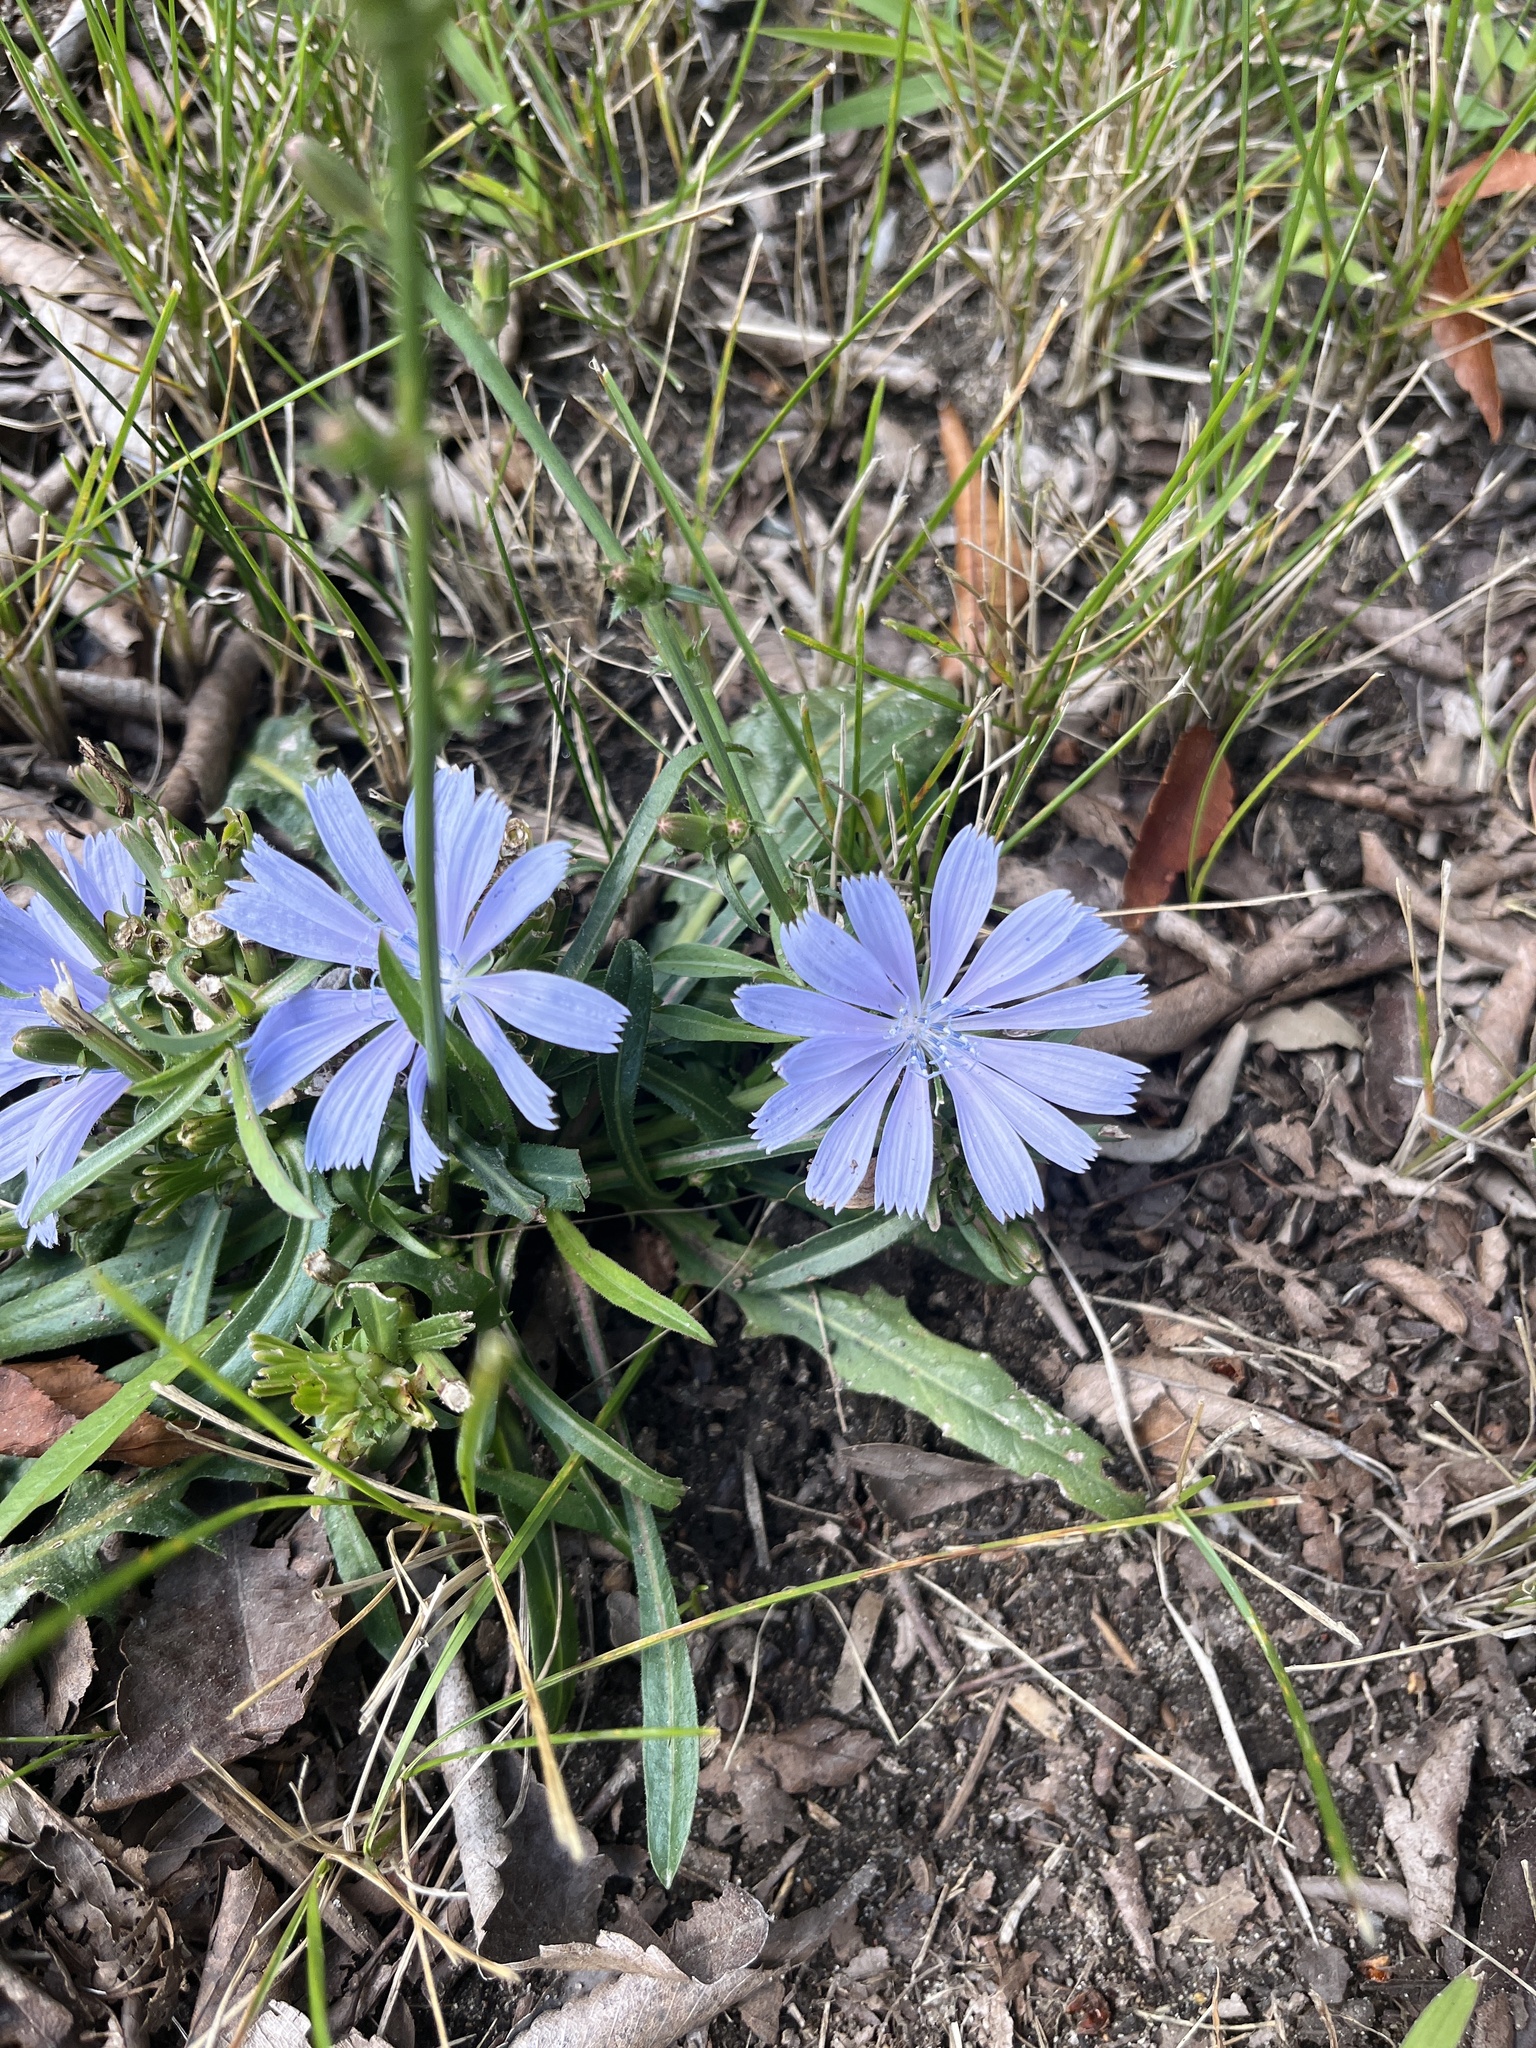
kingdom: Plantae
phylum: Tracheophyta
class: Magnoliopsida
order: Asterales
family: Asteraceae
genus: Cichorium
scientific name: Cichorium intybus
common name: Chicory
